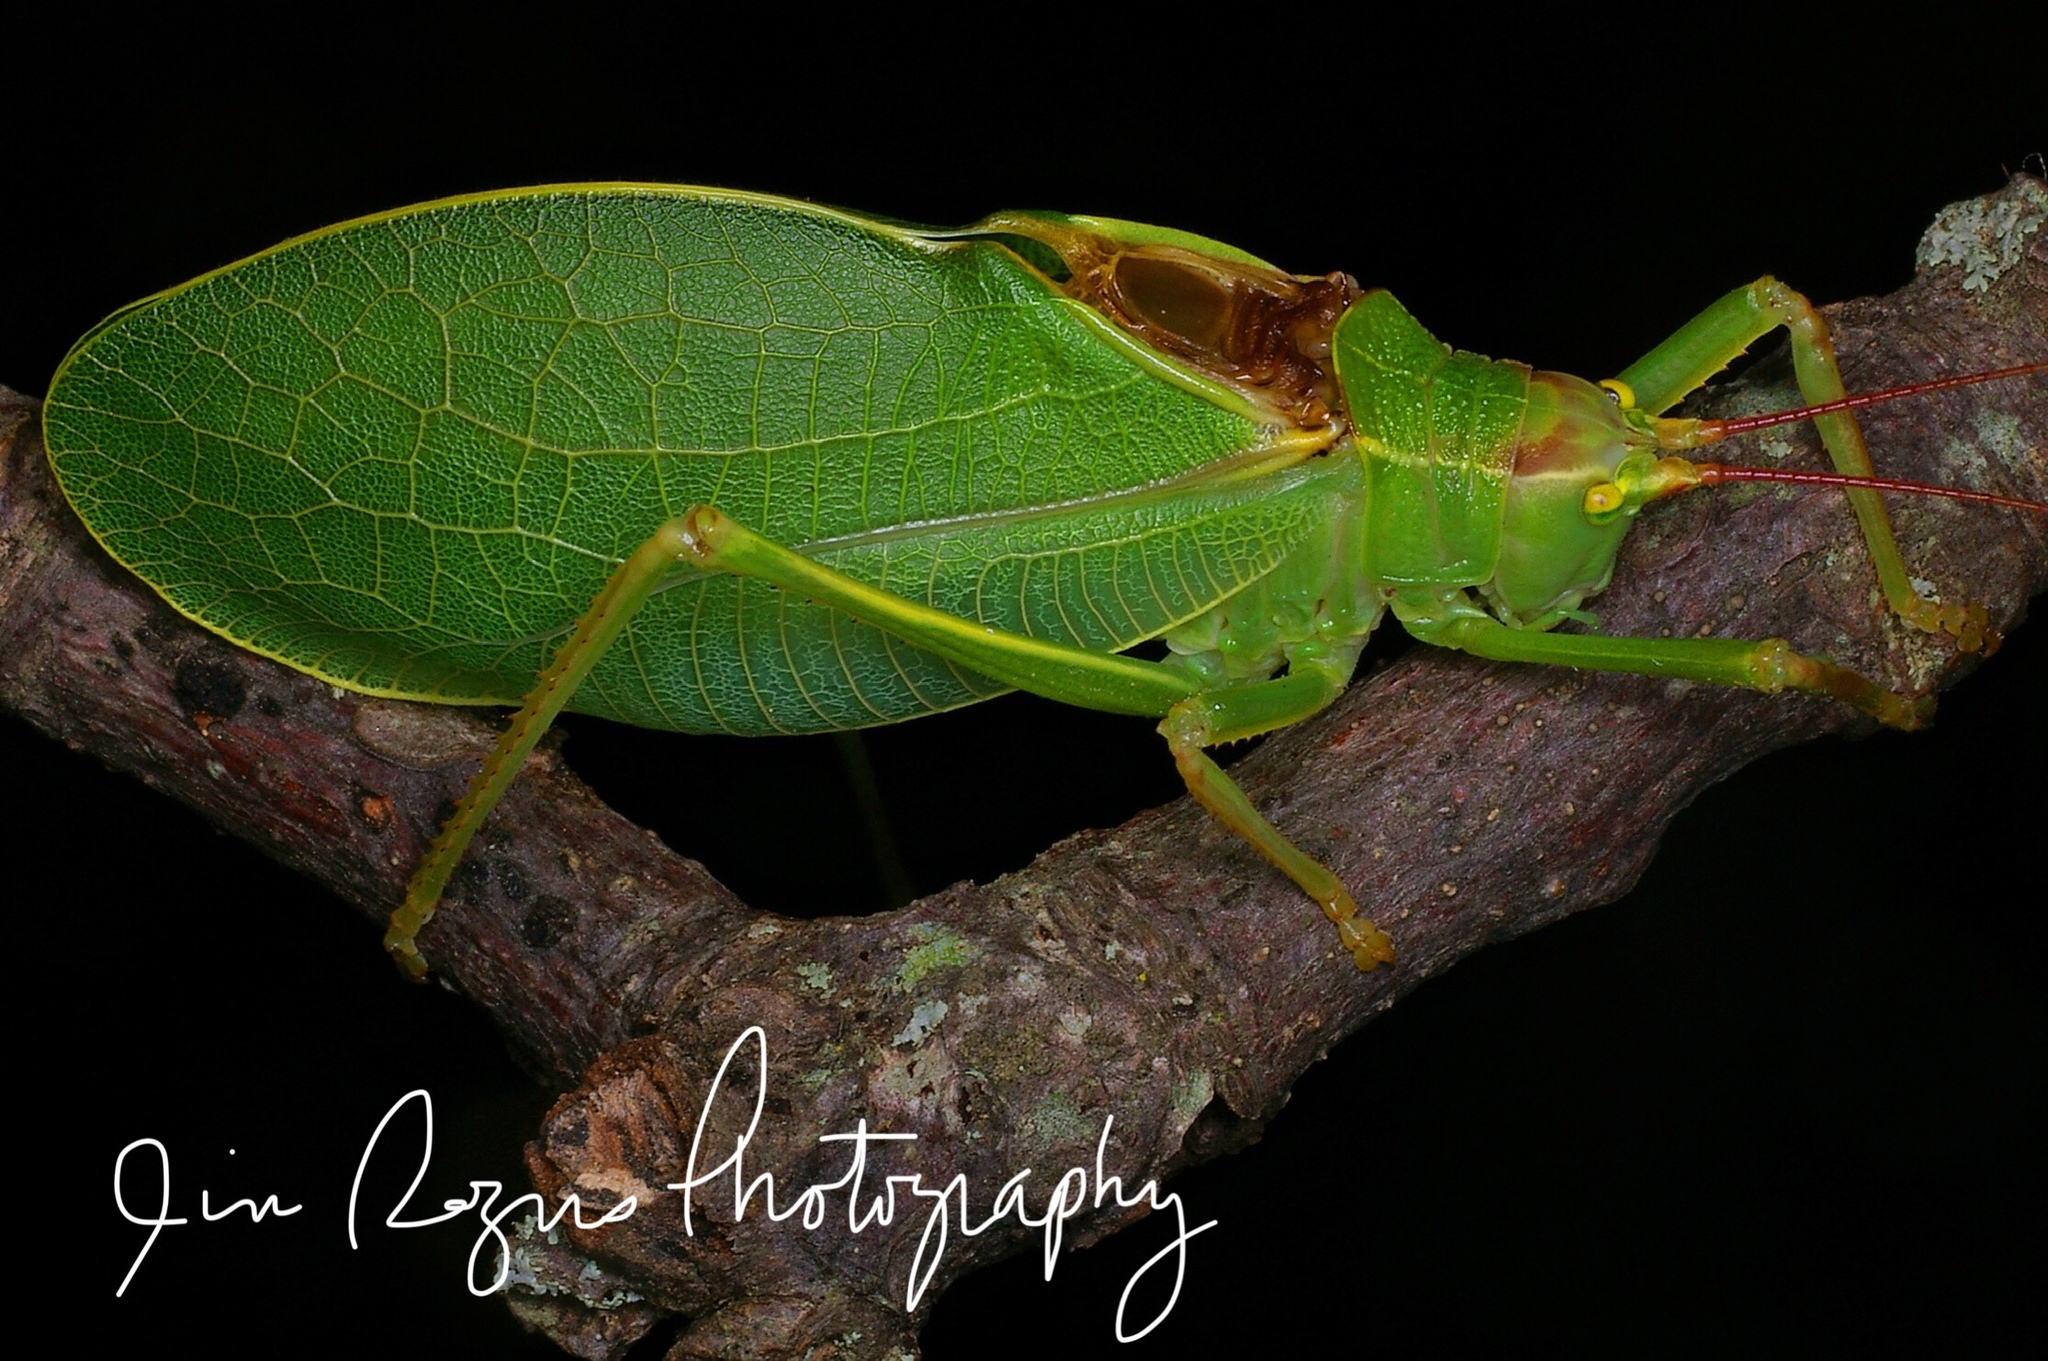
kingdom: Animalia
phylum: Arthropoda
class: Insecta
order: Orthoptera
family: Tettigoniidae
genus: Pterophylla
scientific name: Pterophylla camellifolia
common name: Common true katydid
